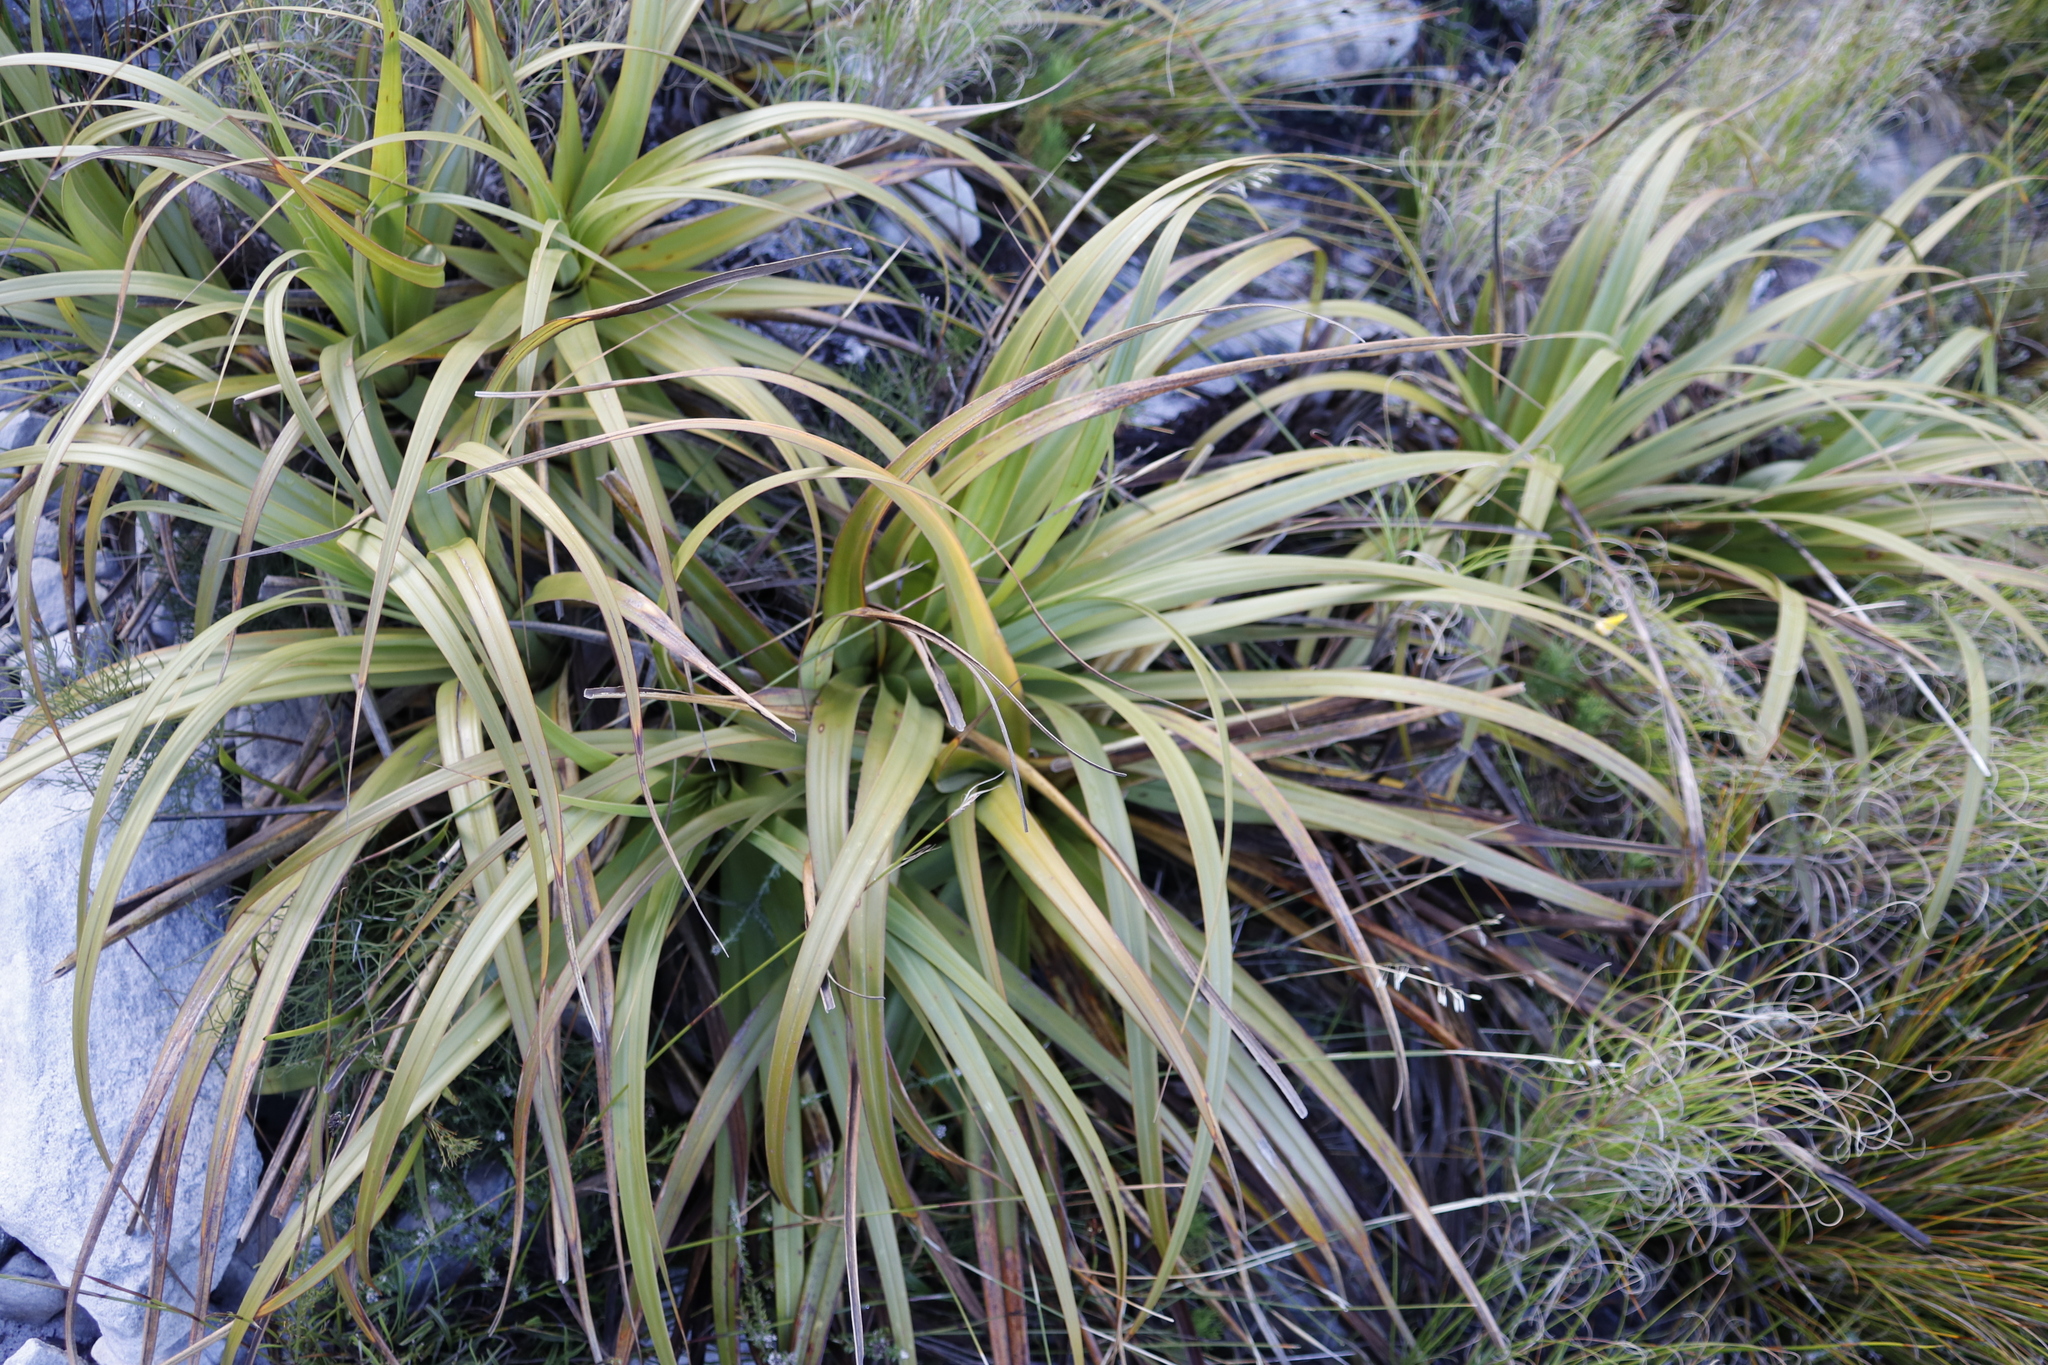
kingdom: Plantae
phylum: Tracheophyta
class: Liliopsida
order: Poales
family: Cyperaceae
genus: Tetraria
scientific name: Tetraria thermalis
